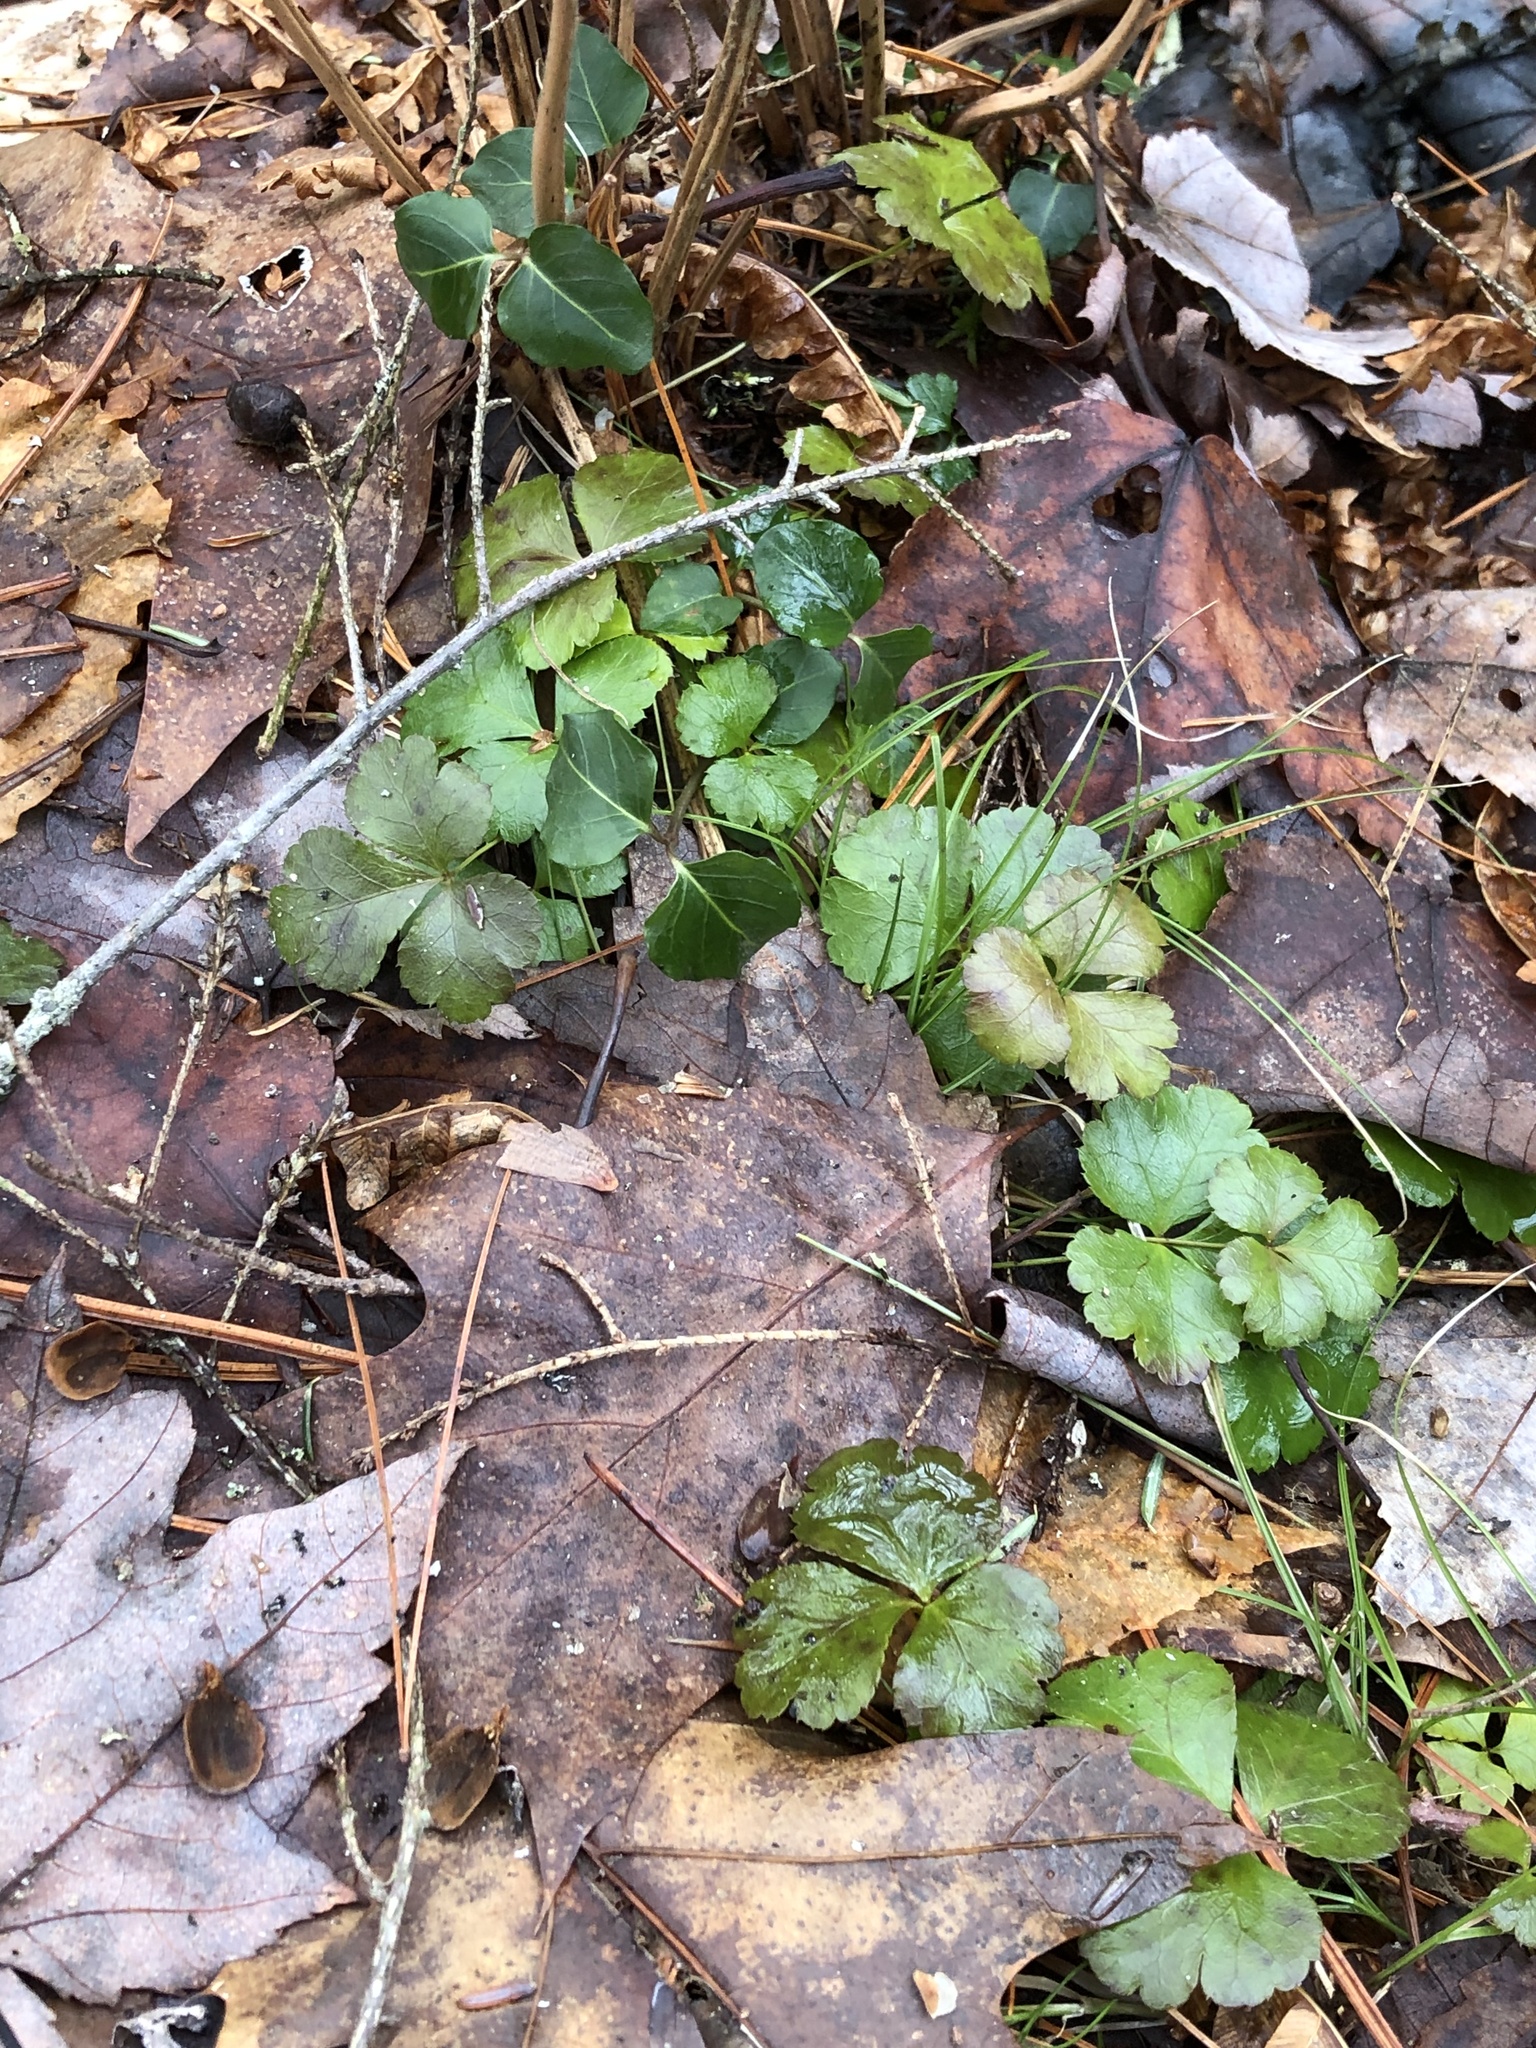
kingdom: Plantae
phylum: Tracheophyta
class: Magnoliopsida
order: Ranunculales
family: Ranunculaceae
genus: Coptis
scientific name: Coptis trifolia
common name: Canker-root
